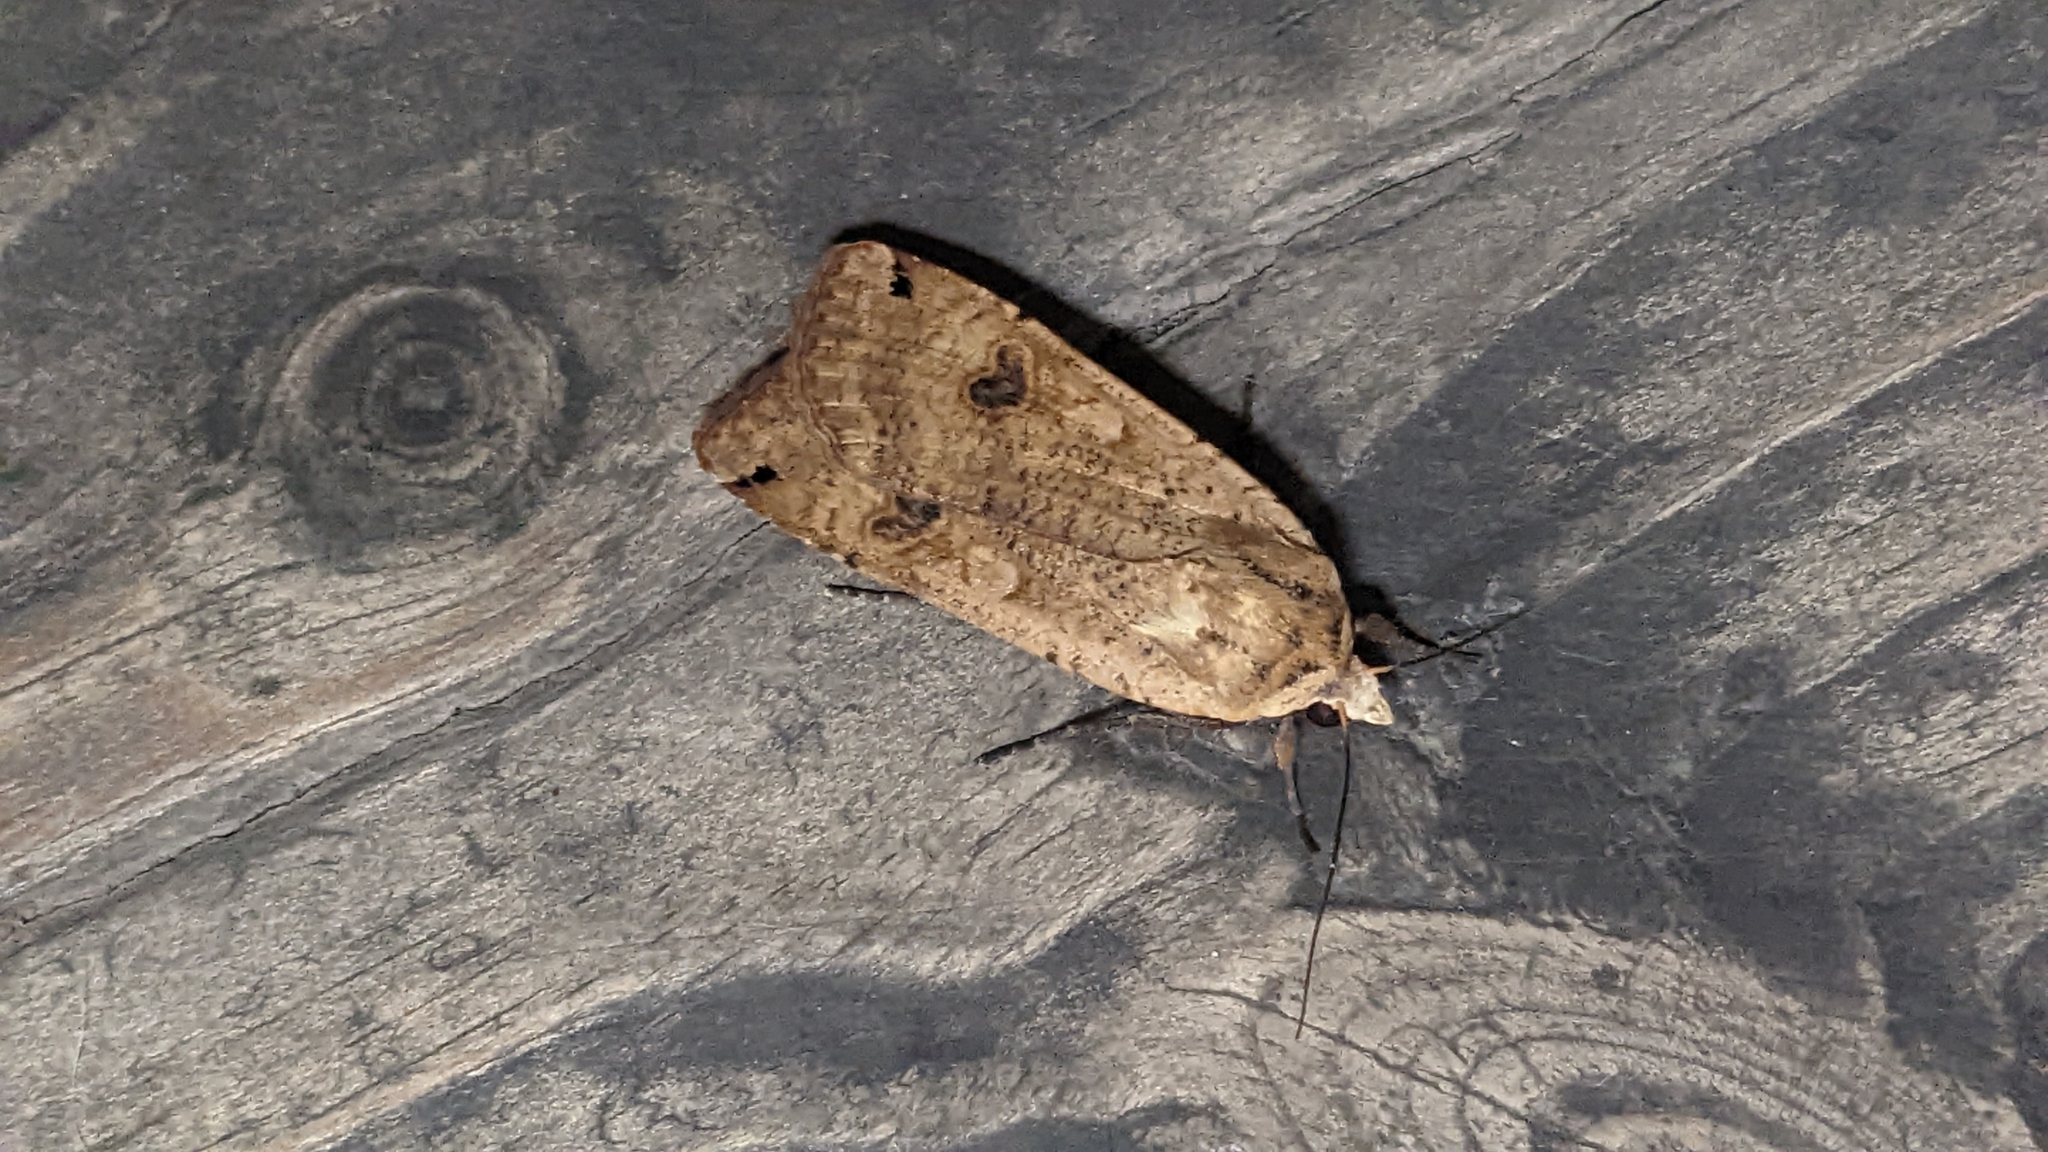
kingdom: Animalia
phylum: Arthropoda
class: Insecta
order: Lepidoptera
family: Noctuidae
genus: Noctua
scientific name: Noctua pronuba
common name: Large yellow underwing
